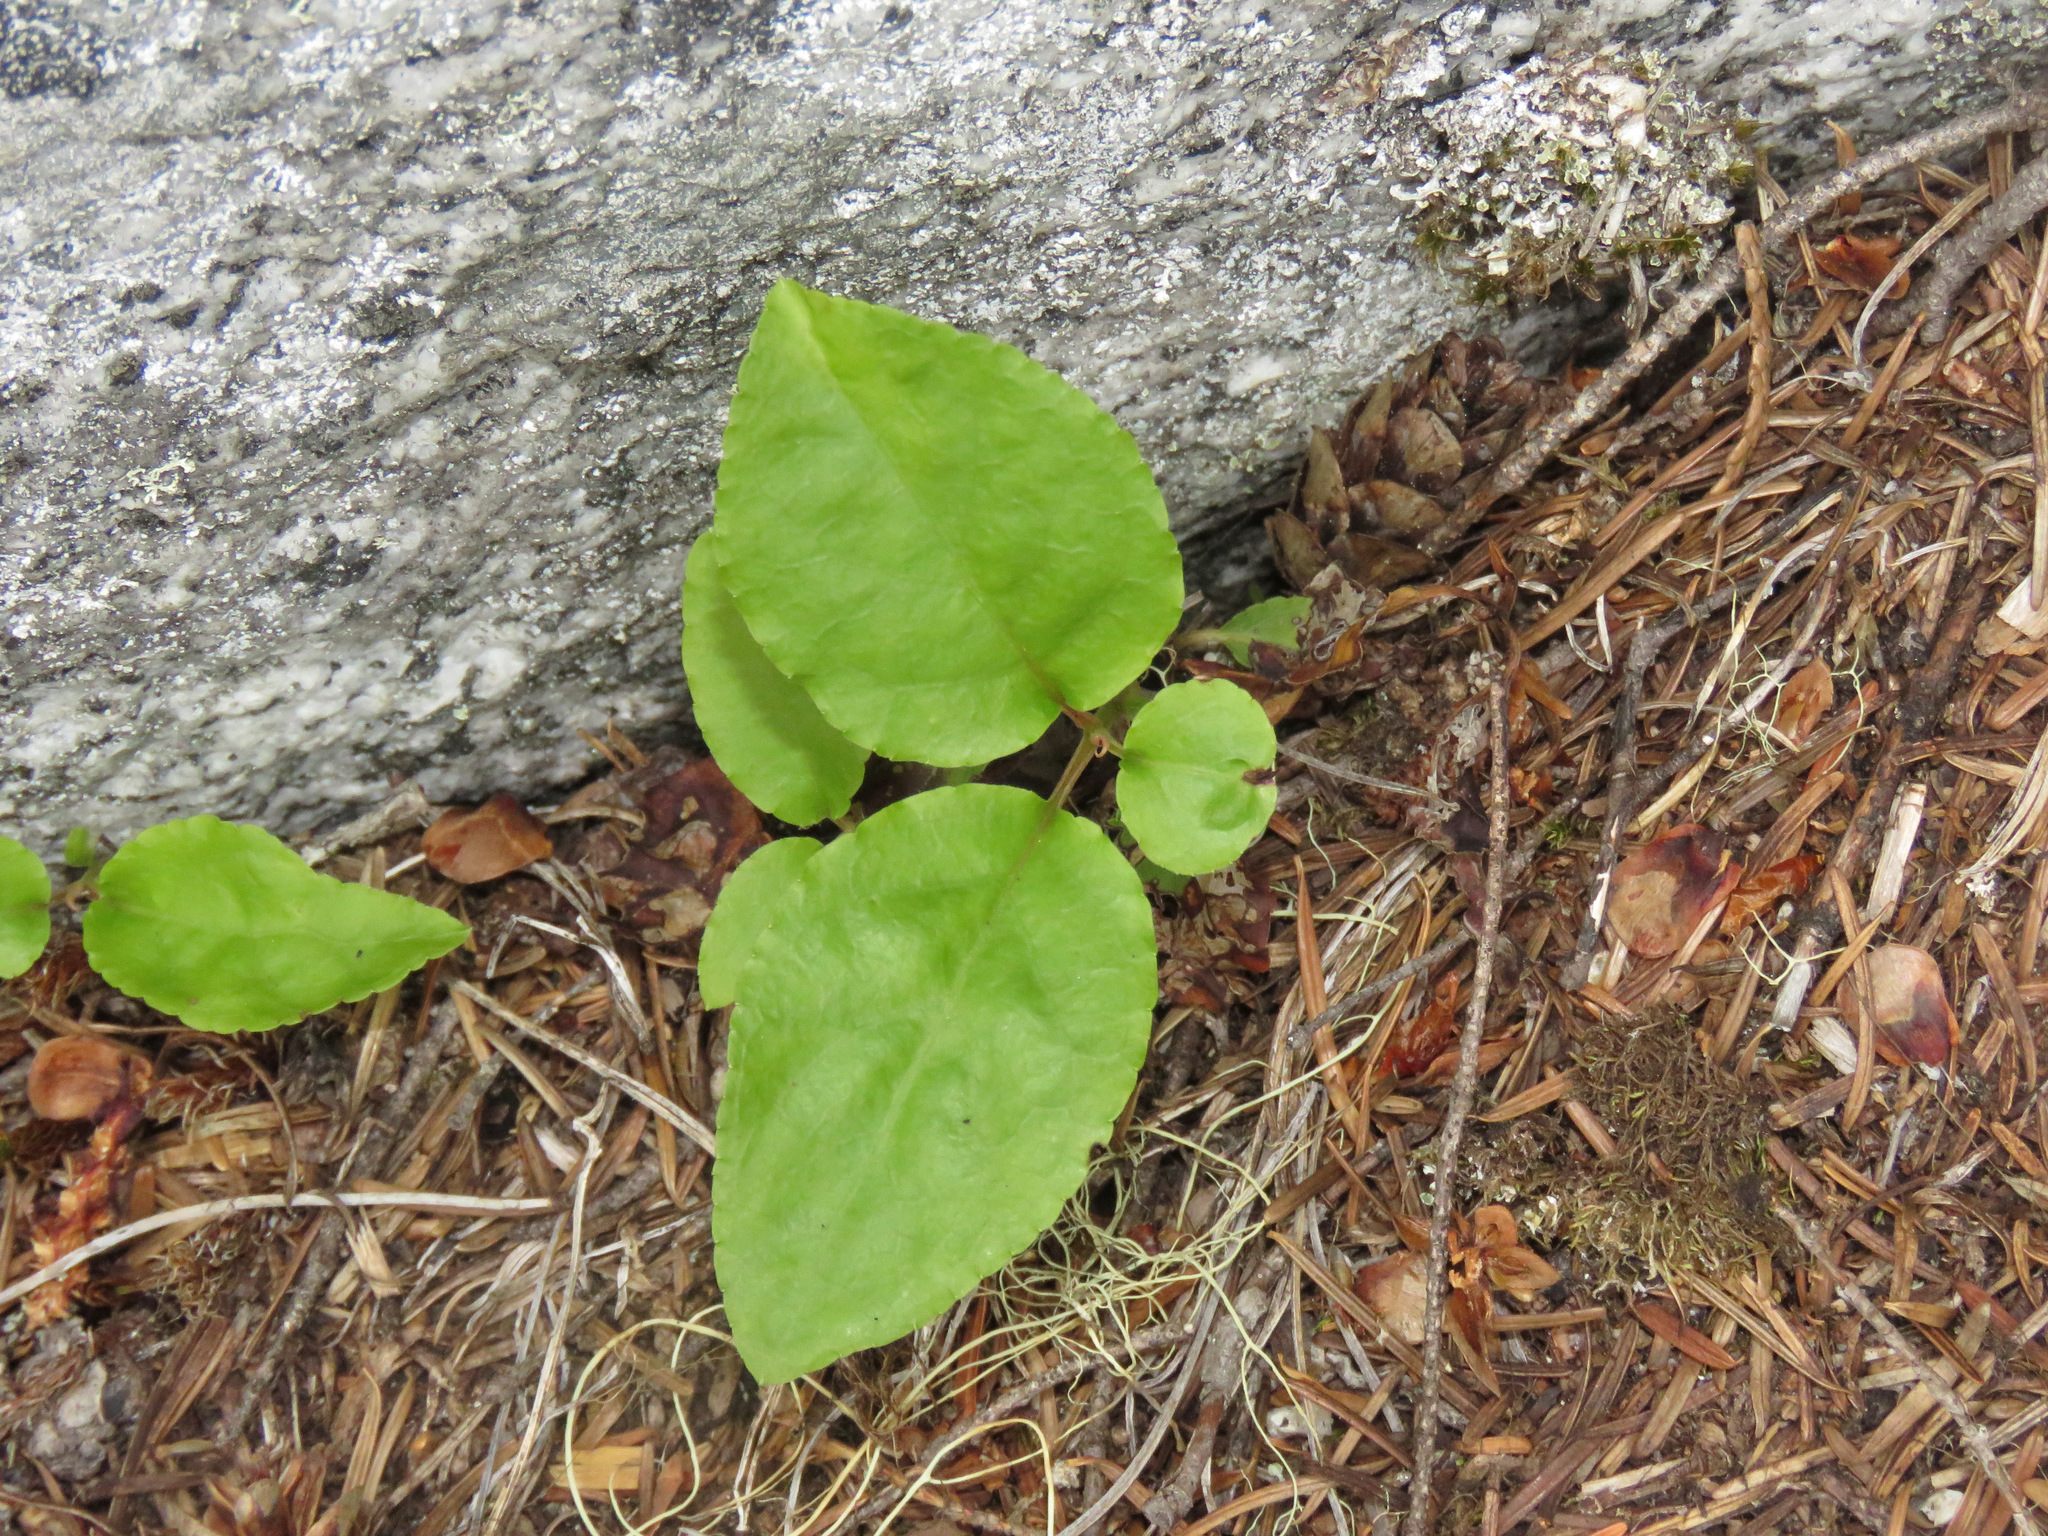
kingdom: Plantae
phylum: Tracheophyta
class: Magnoliopsida
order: Ericales
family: Ericaceae
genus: Orthilia
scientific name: Orthilia secunda
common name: One-sided orthilia
